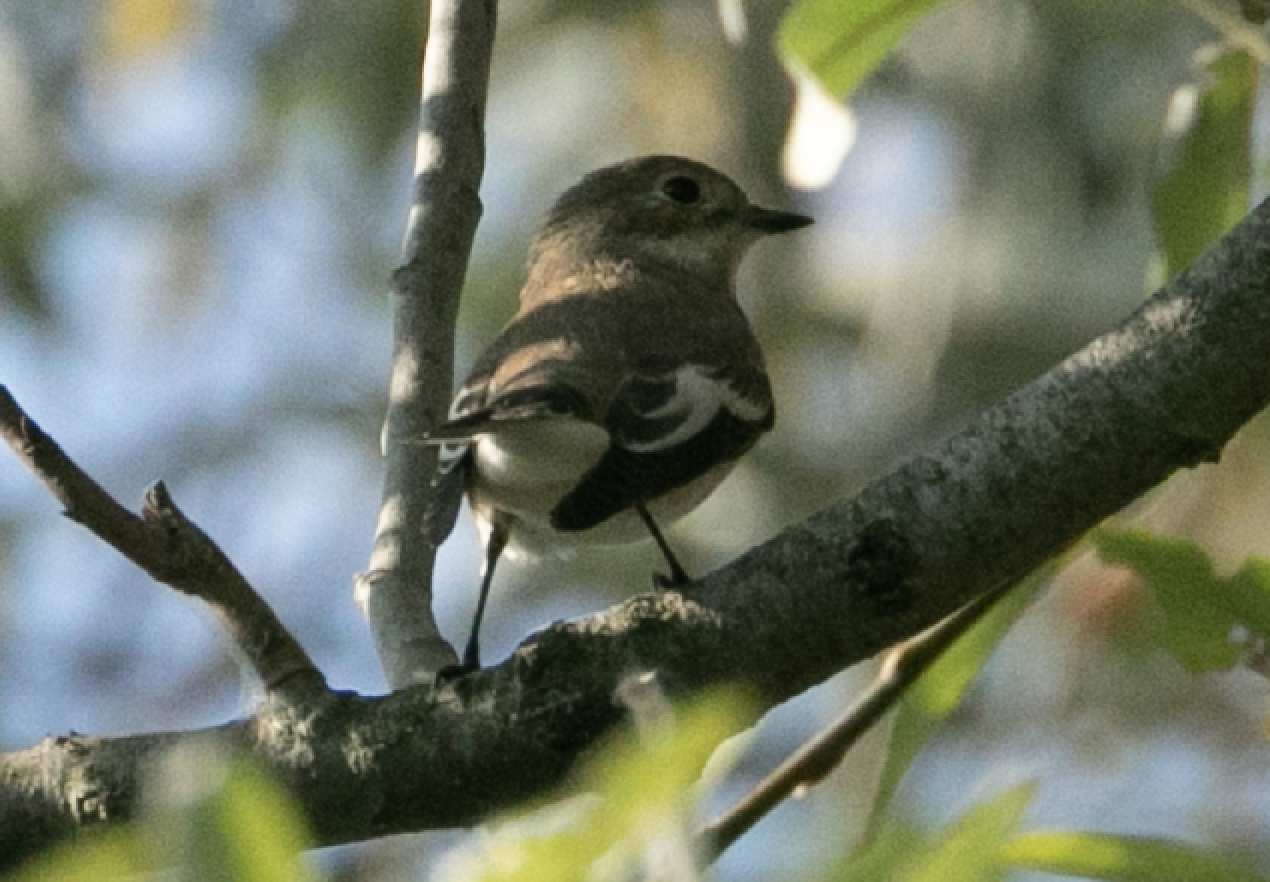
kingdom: Animalia
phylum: Chordata
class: Aves
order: Passeriformes
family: Muscicapidae
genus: Ficedula
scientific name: Ficedula hypoleuca
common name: European pied flycatcher
